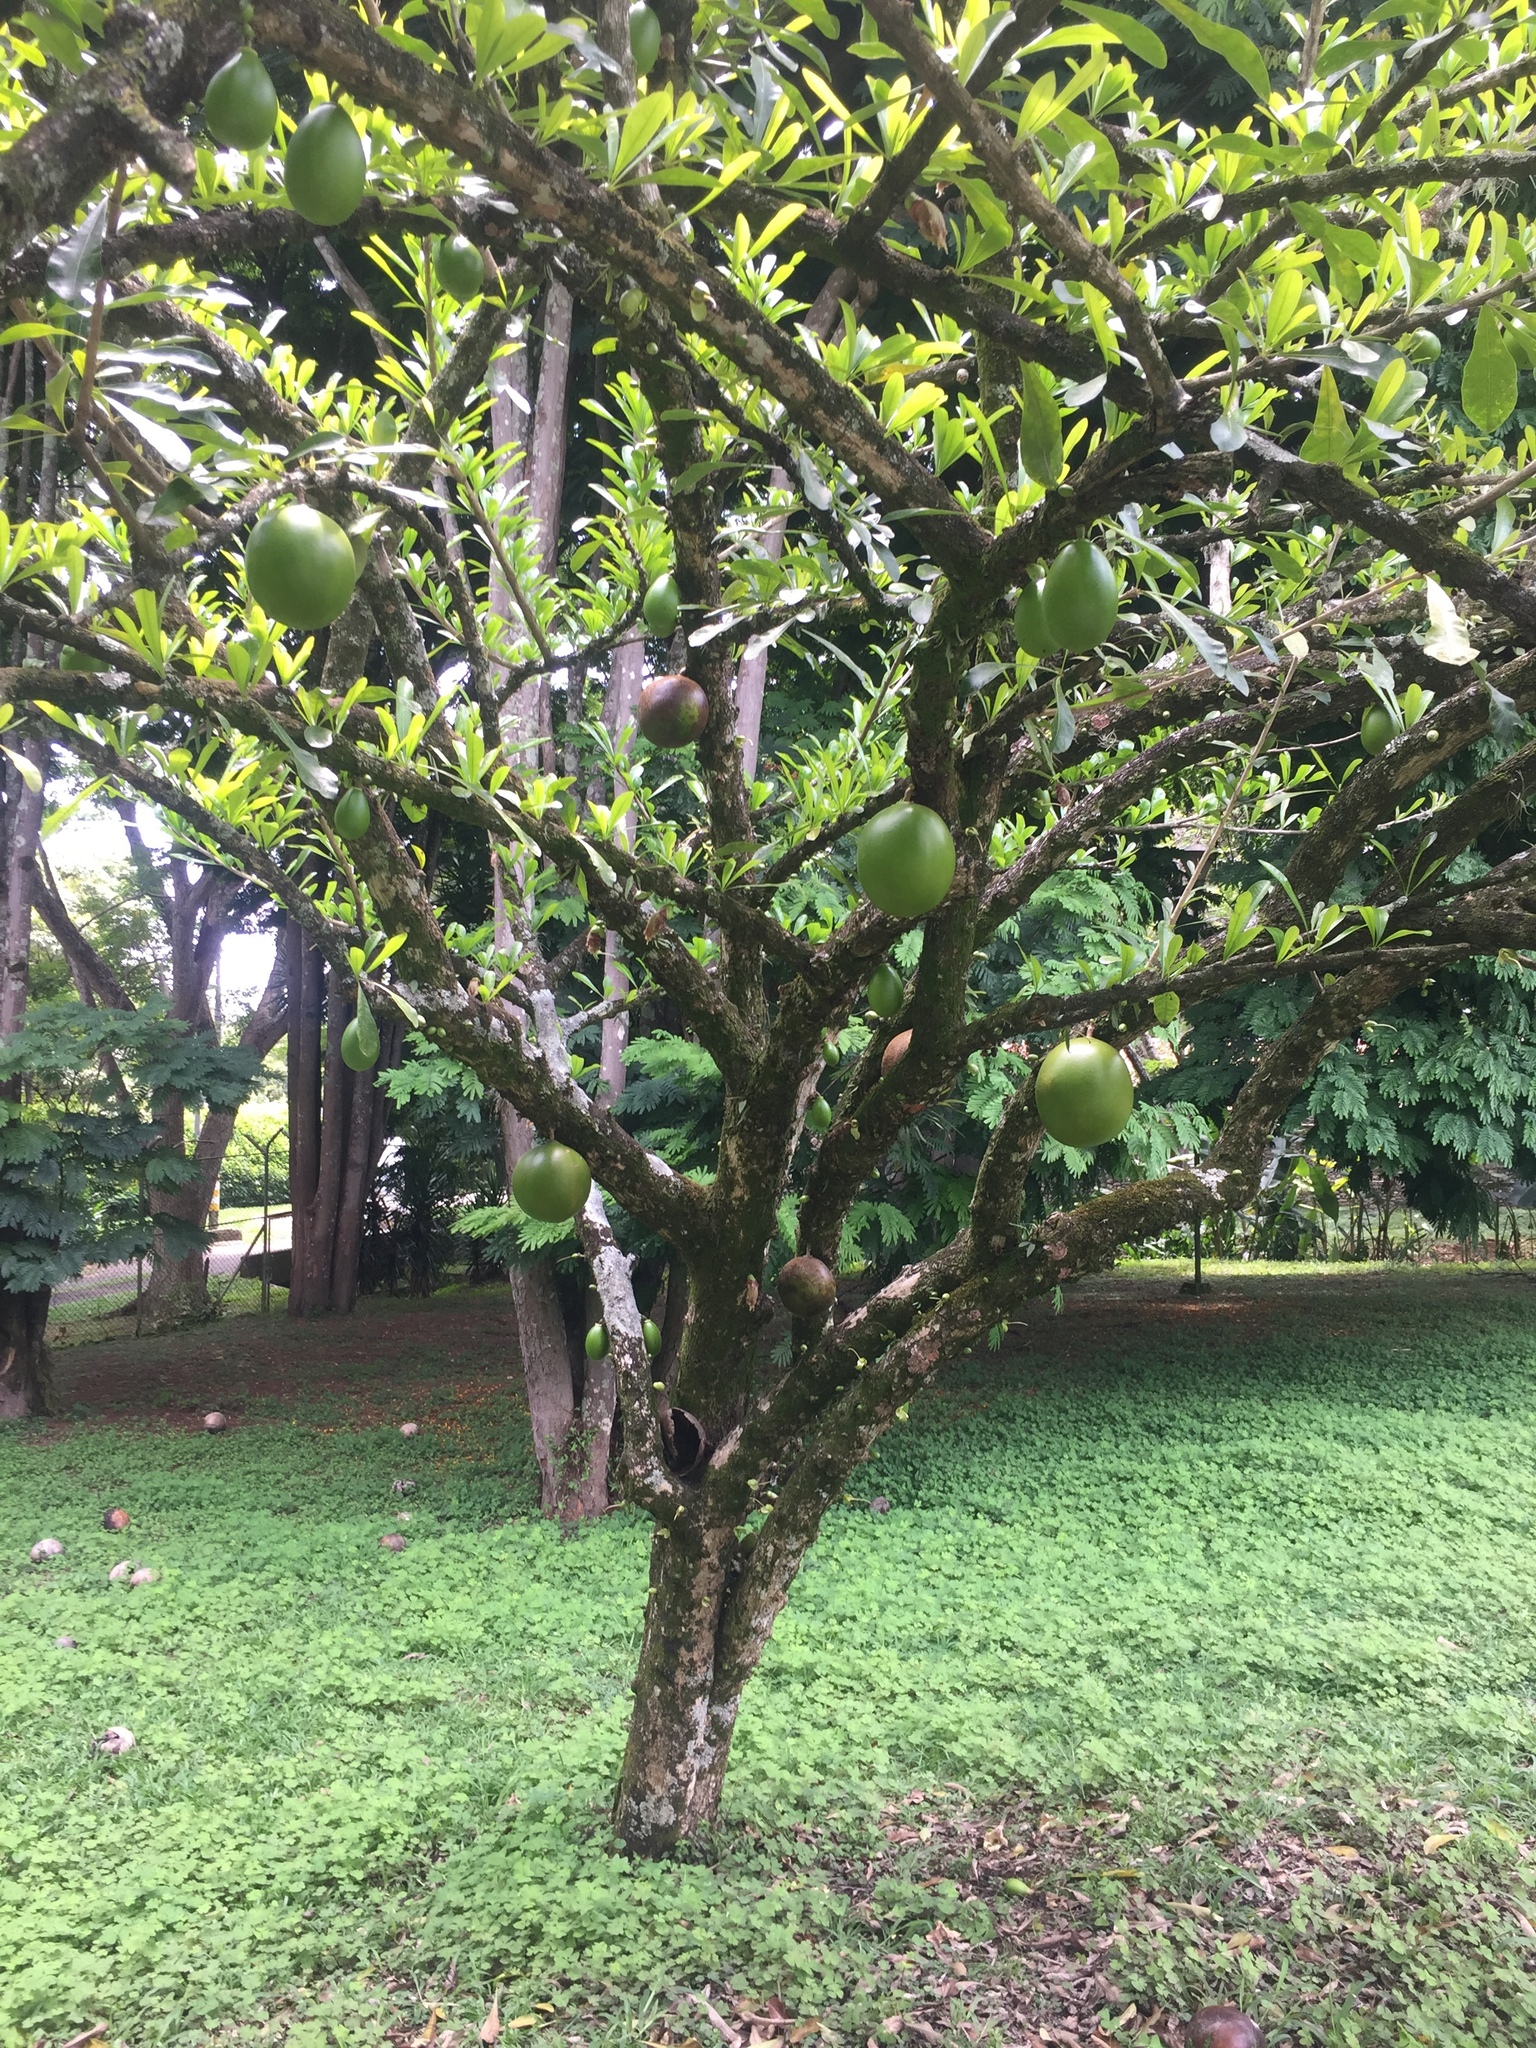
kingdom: Plantae
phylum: Tracheophyta
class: Magnoliopsida
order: Lamiales
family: Bignoniaceae
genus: Crescentia
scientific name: Crescentia cujete
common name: Calabash
